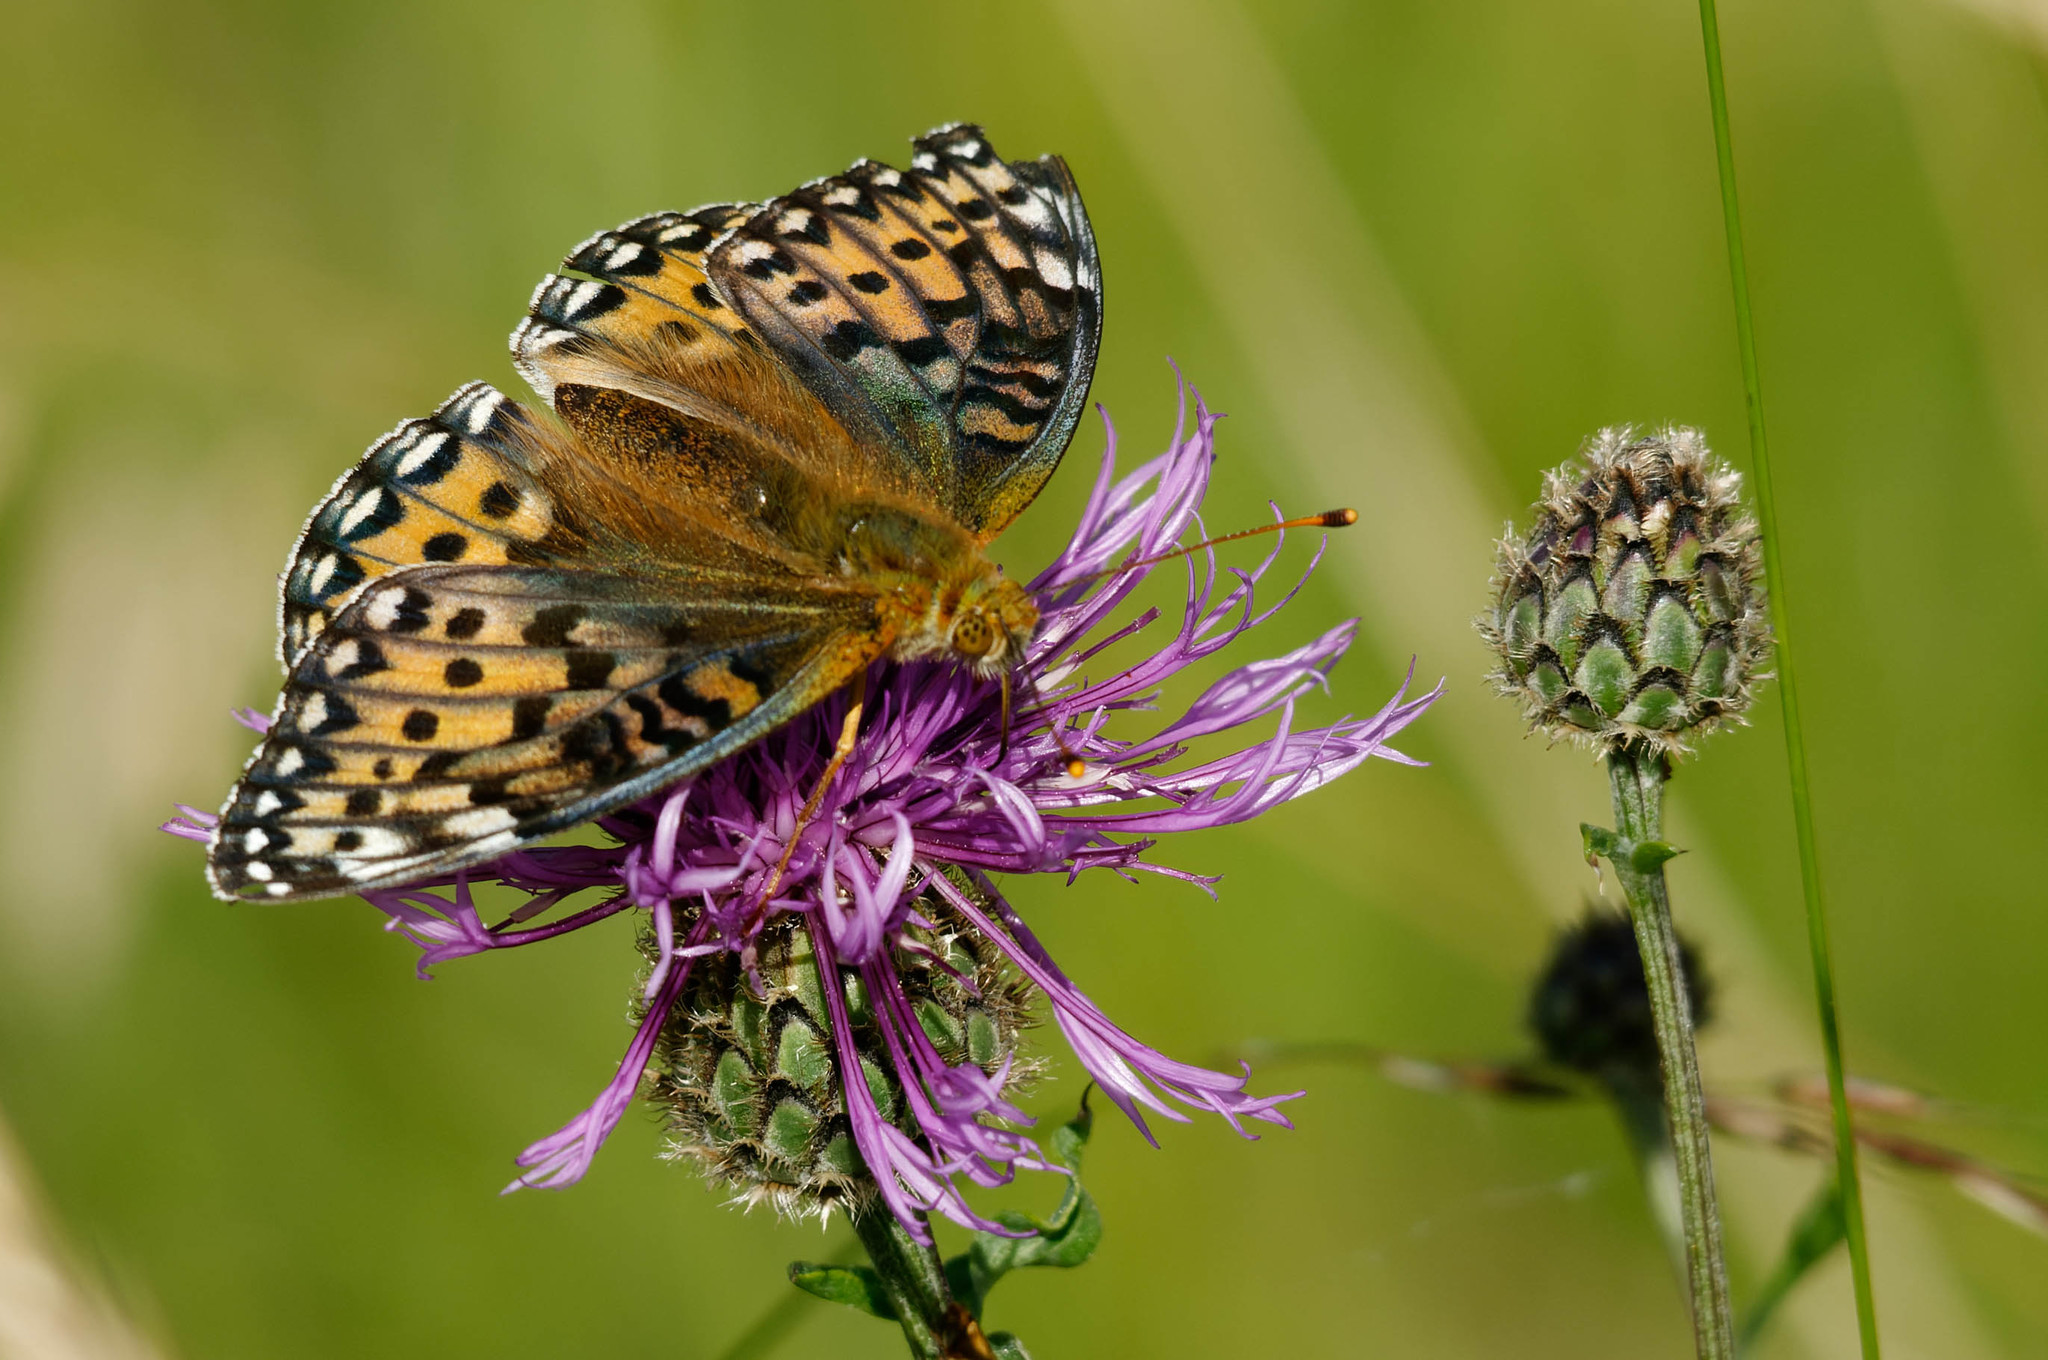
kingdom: Animalia
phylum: Arthropoda
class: Insecta
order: Lepidoptera
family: Nymphalidae
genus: Speyeria
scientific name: Speyeria aglaja
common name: Dark green fritillary
